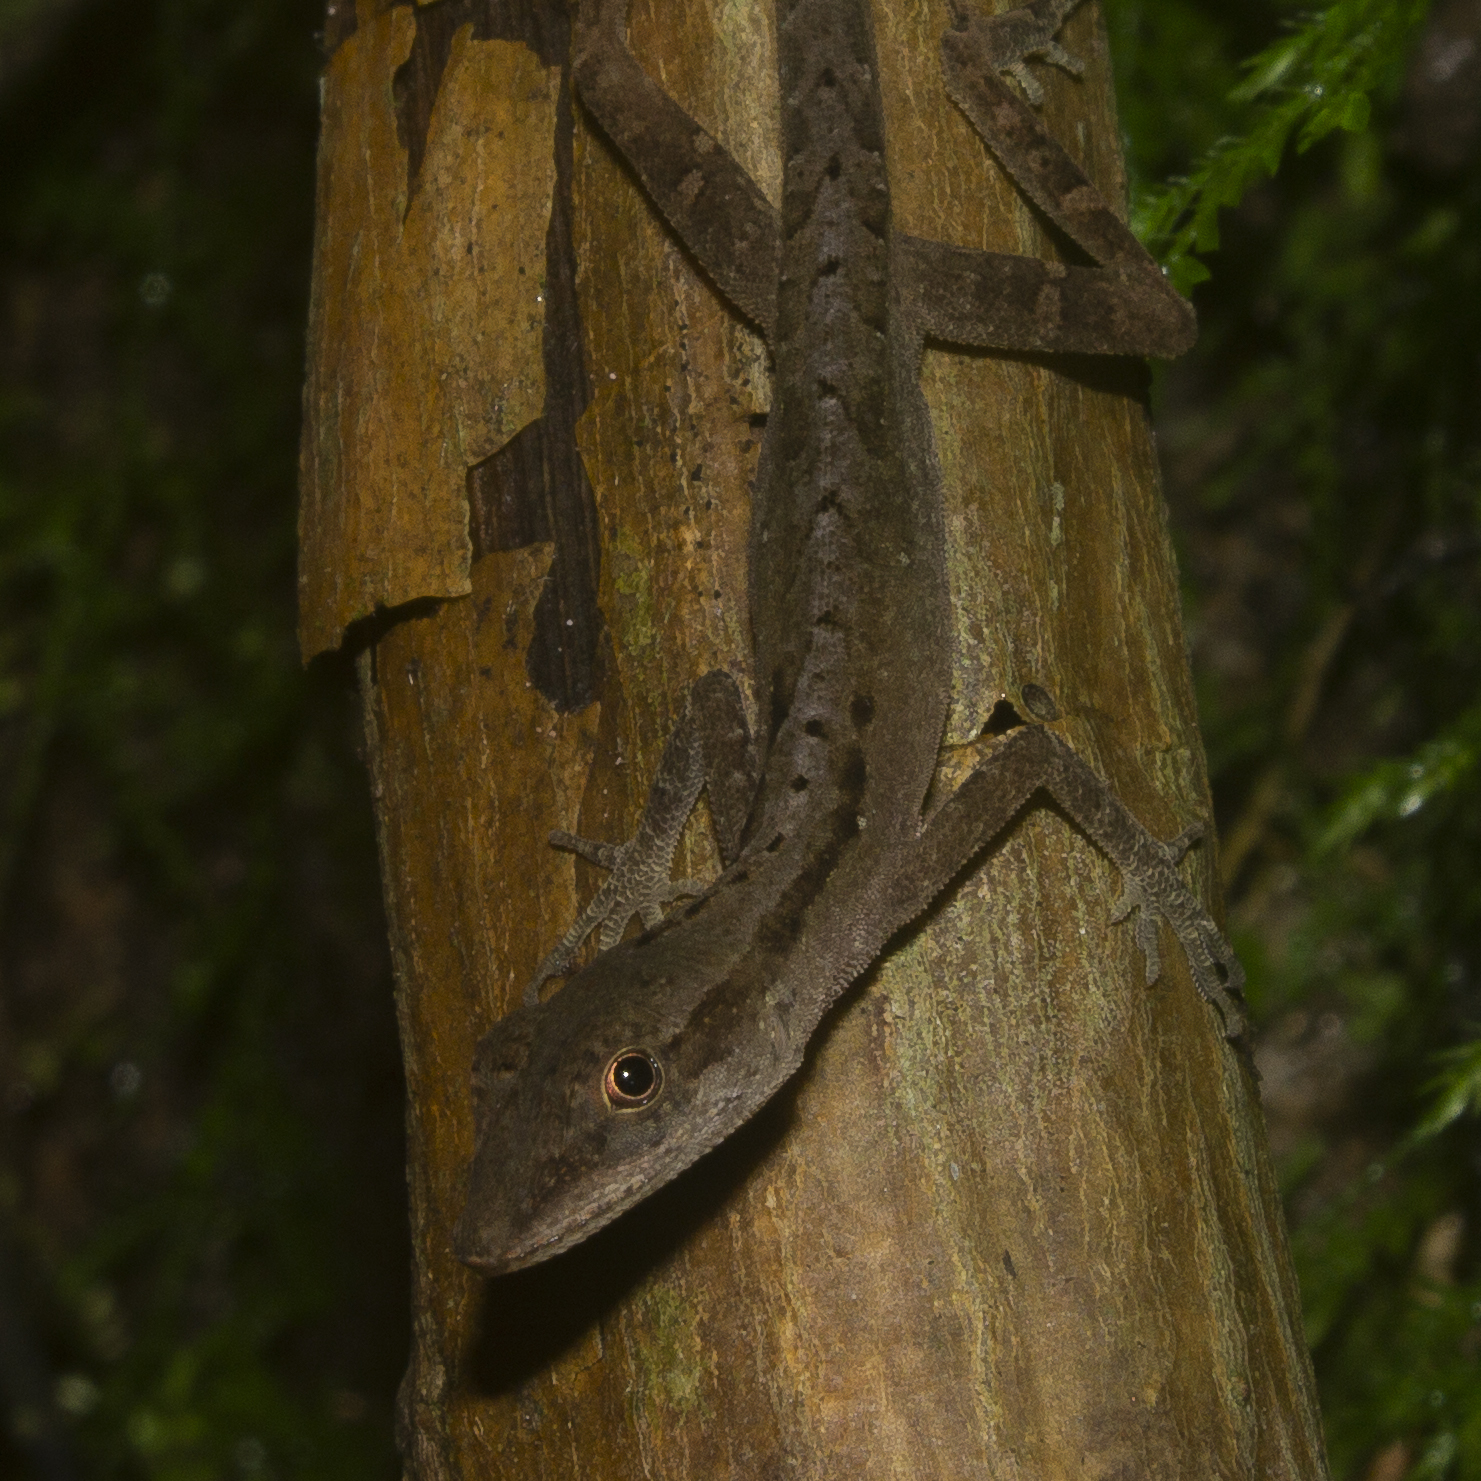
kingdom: Animalia
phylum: Chordata
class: Squamata
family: Dactyloidae
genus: Anolis
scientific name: Anolis gaigei
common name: Gaige’s anole
